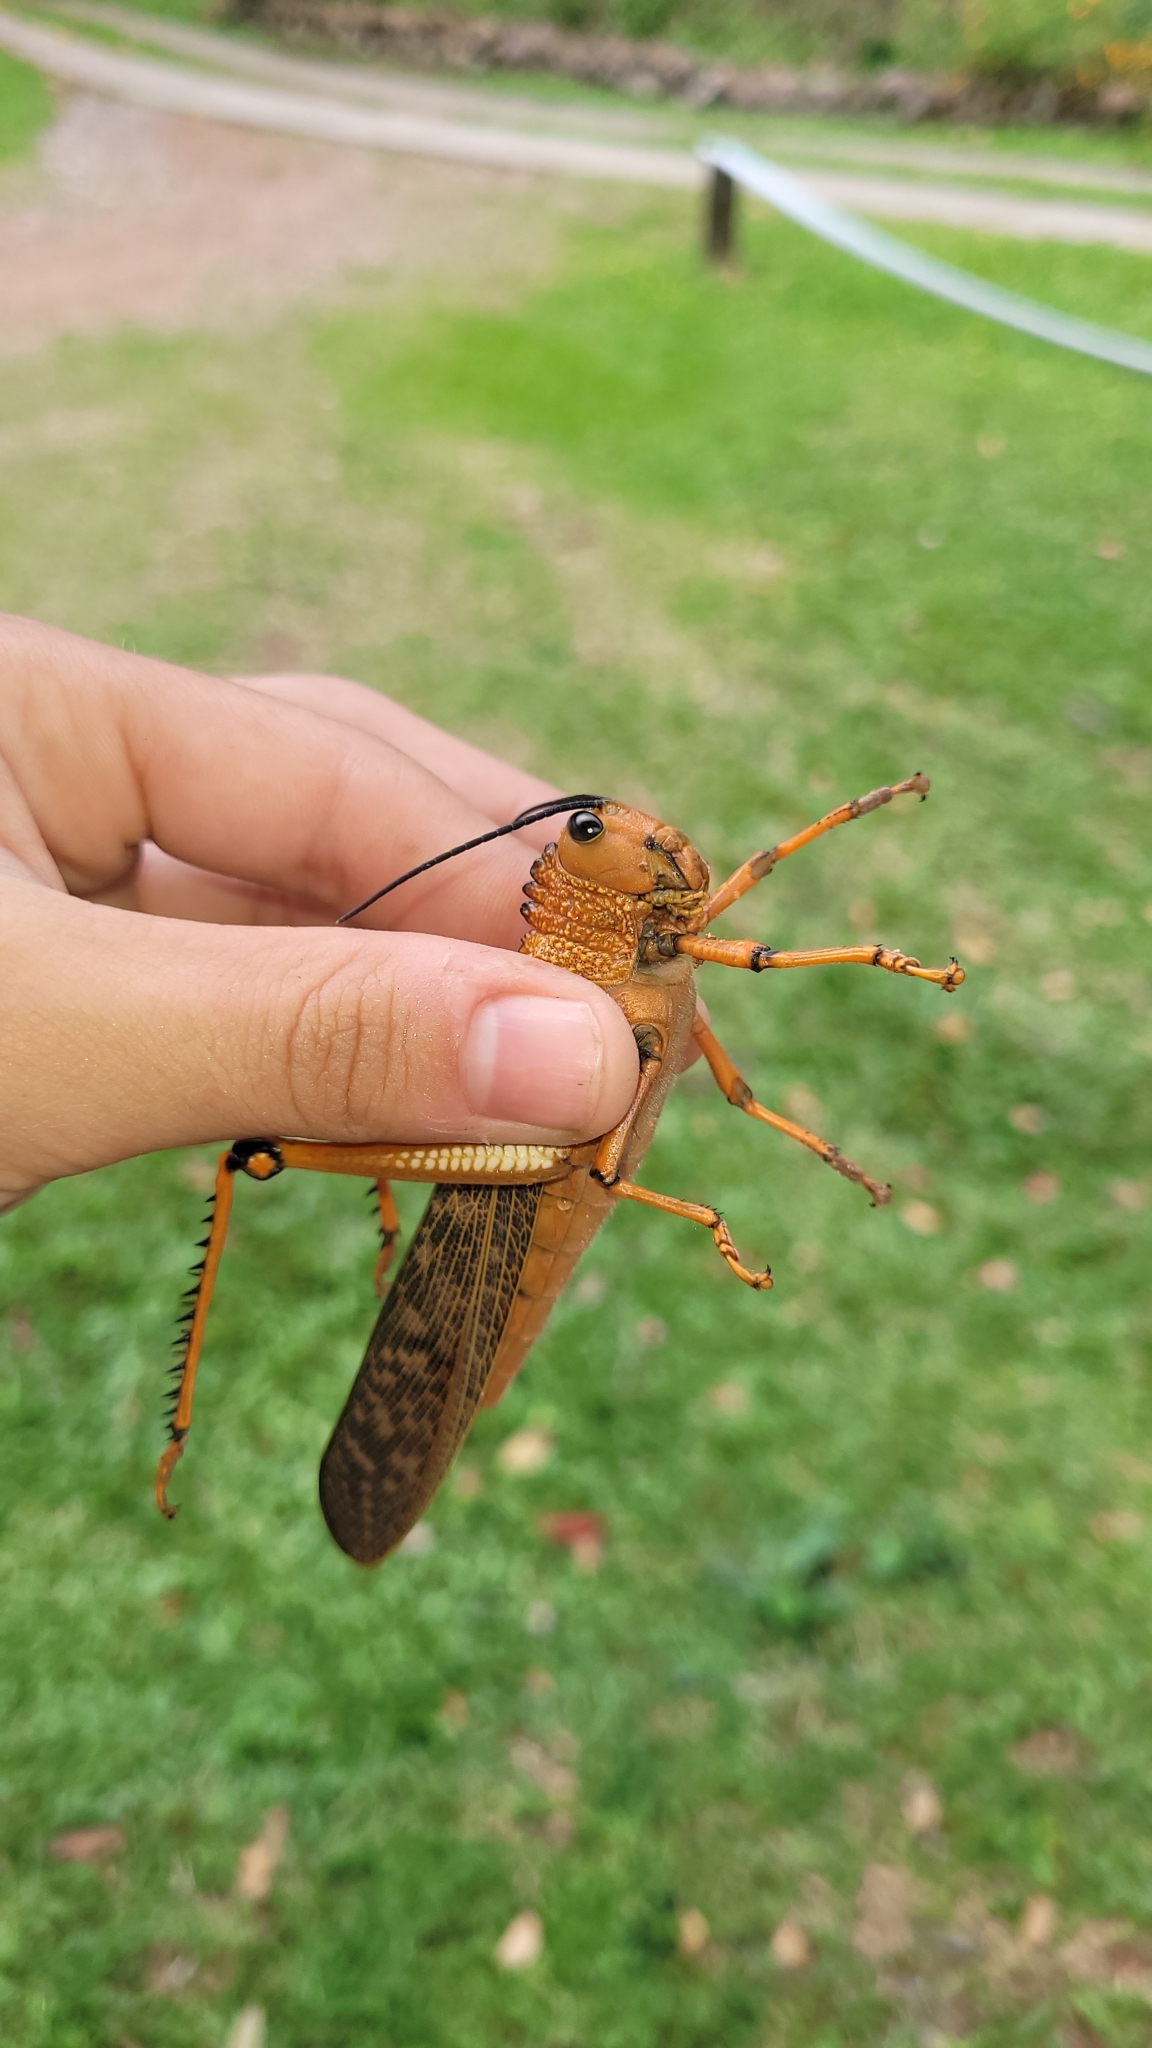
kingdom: Animalia
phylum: Arthropoda
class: Insecta
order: Orthoptera
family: Romaleidae
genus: Tropidacris
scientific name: Tropidacris cristata
